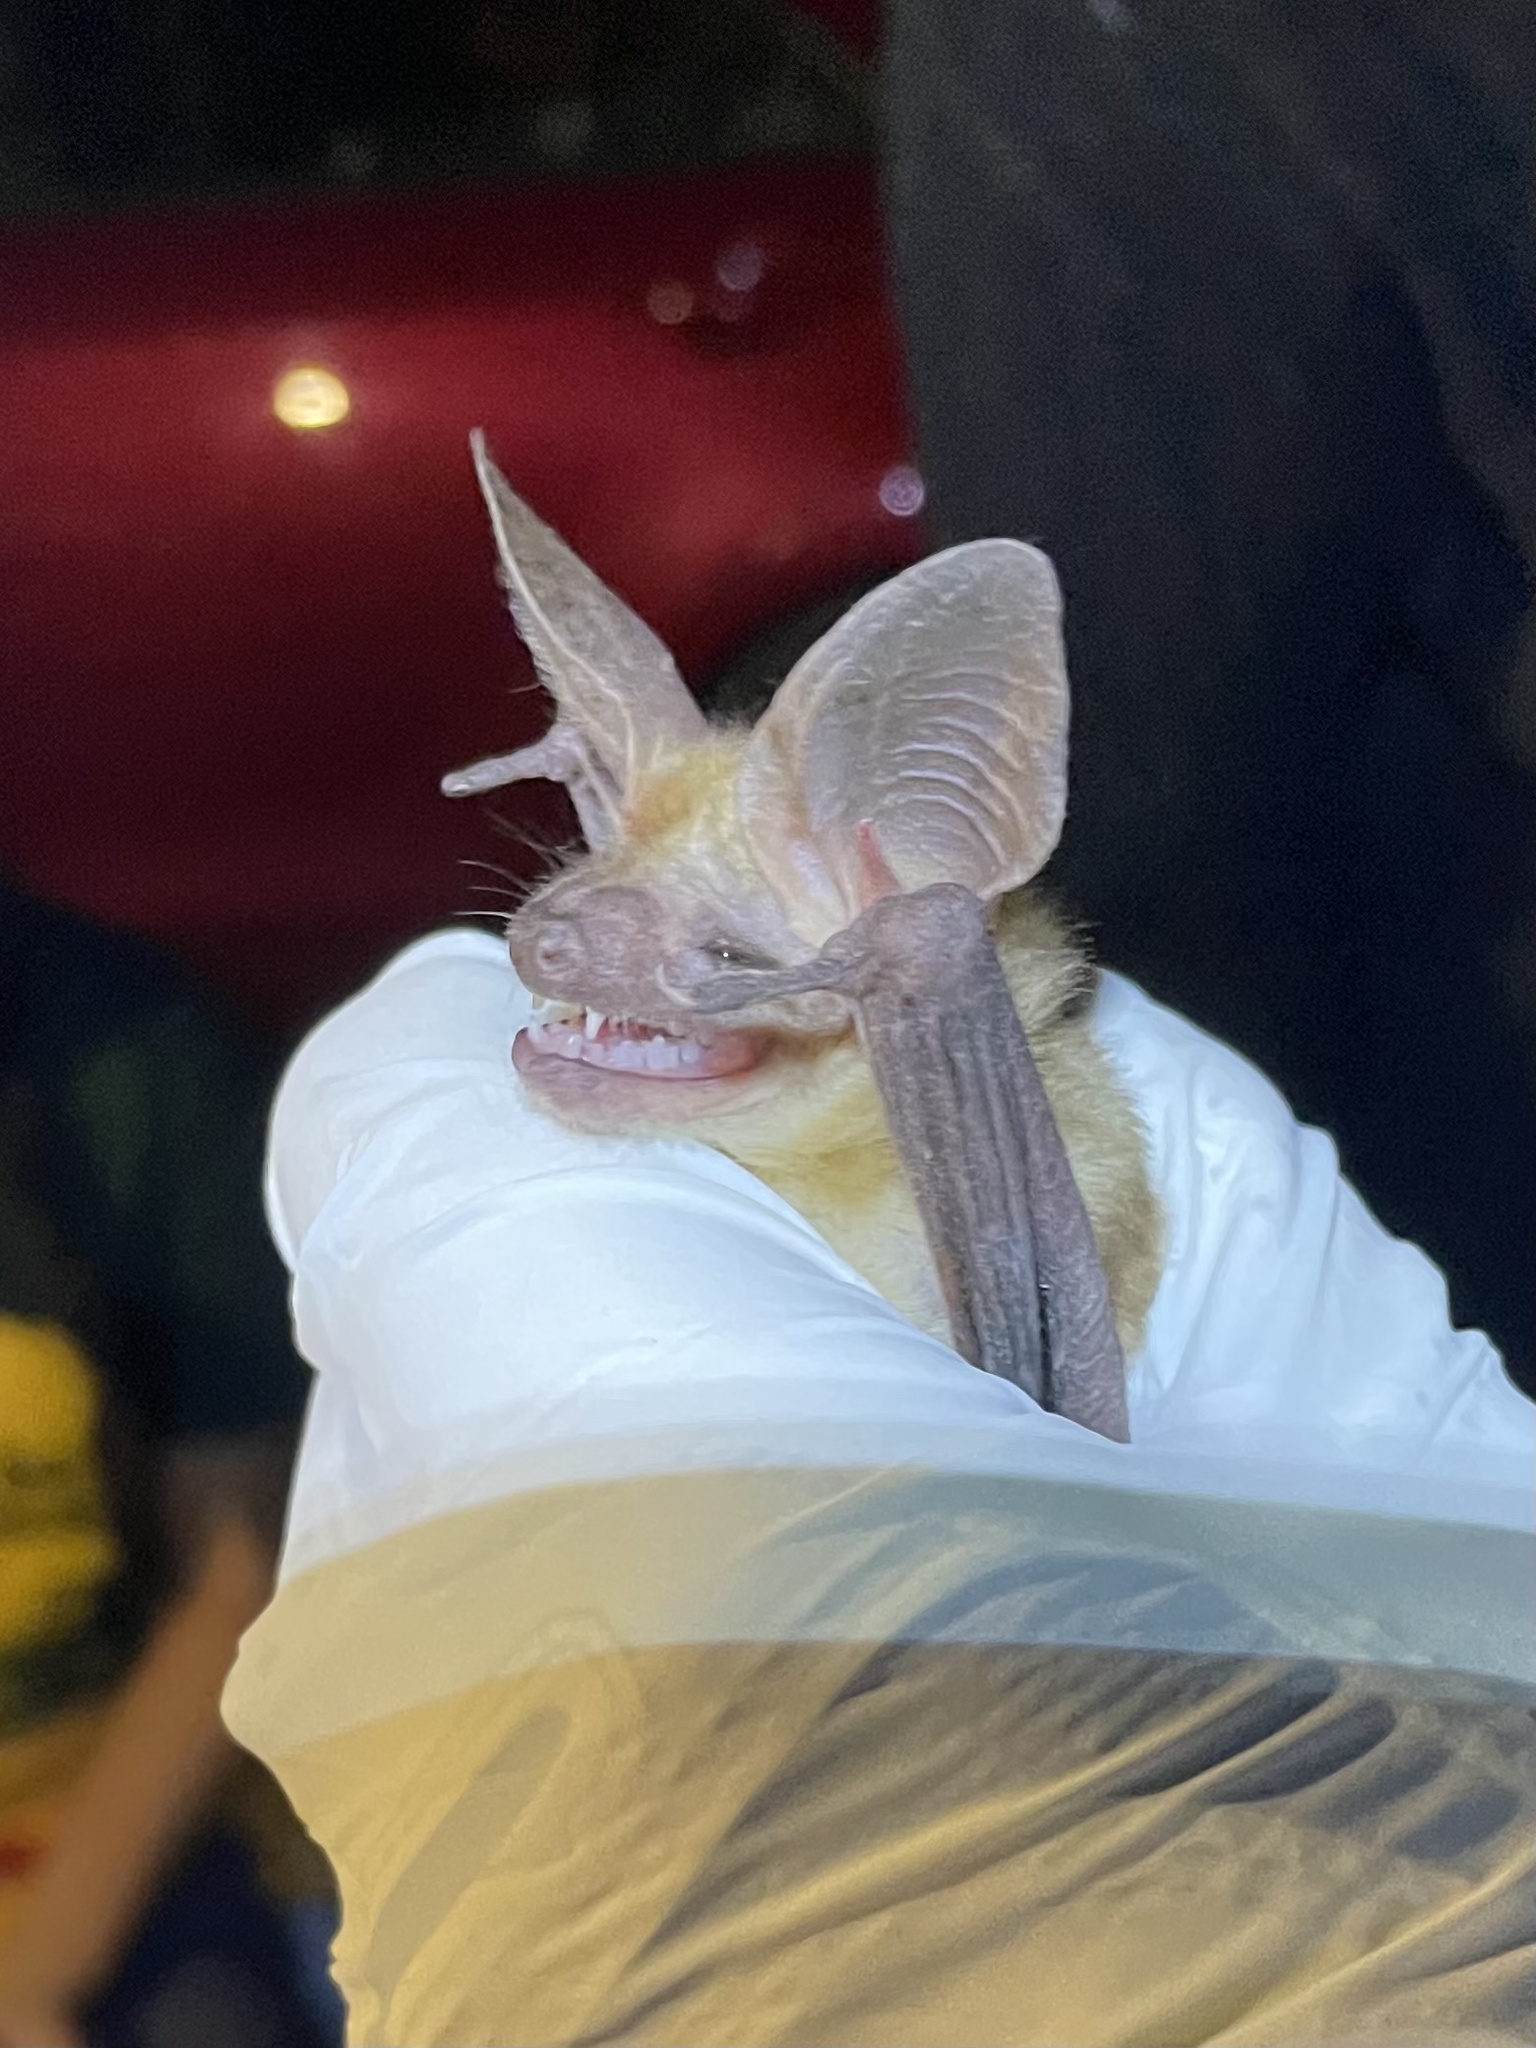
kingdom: Animalia
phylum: Chordata
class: Mammalia
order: Chiroptera
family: Vespertilionidae
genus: Antrozous
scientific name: Antrozous pallidus
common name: Pallid bat
